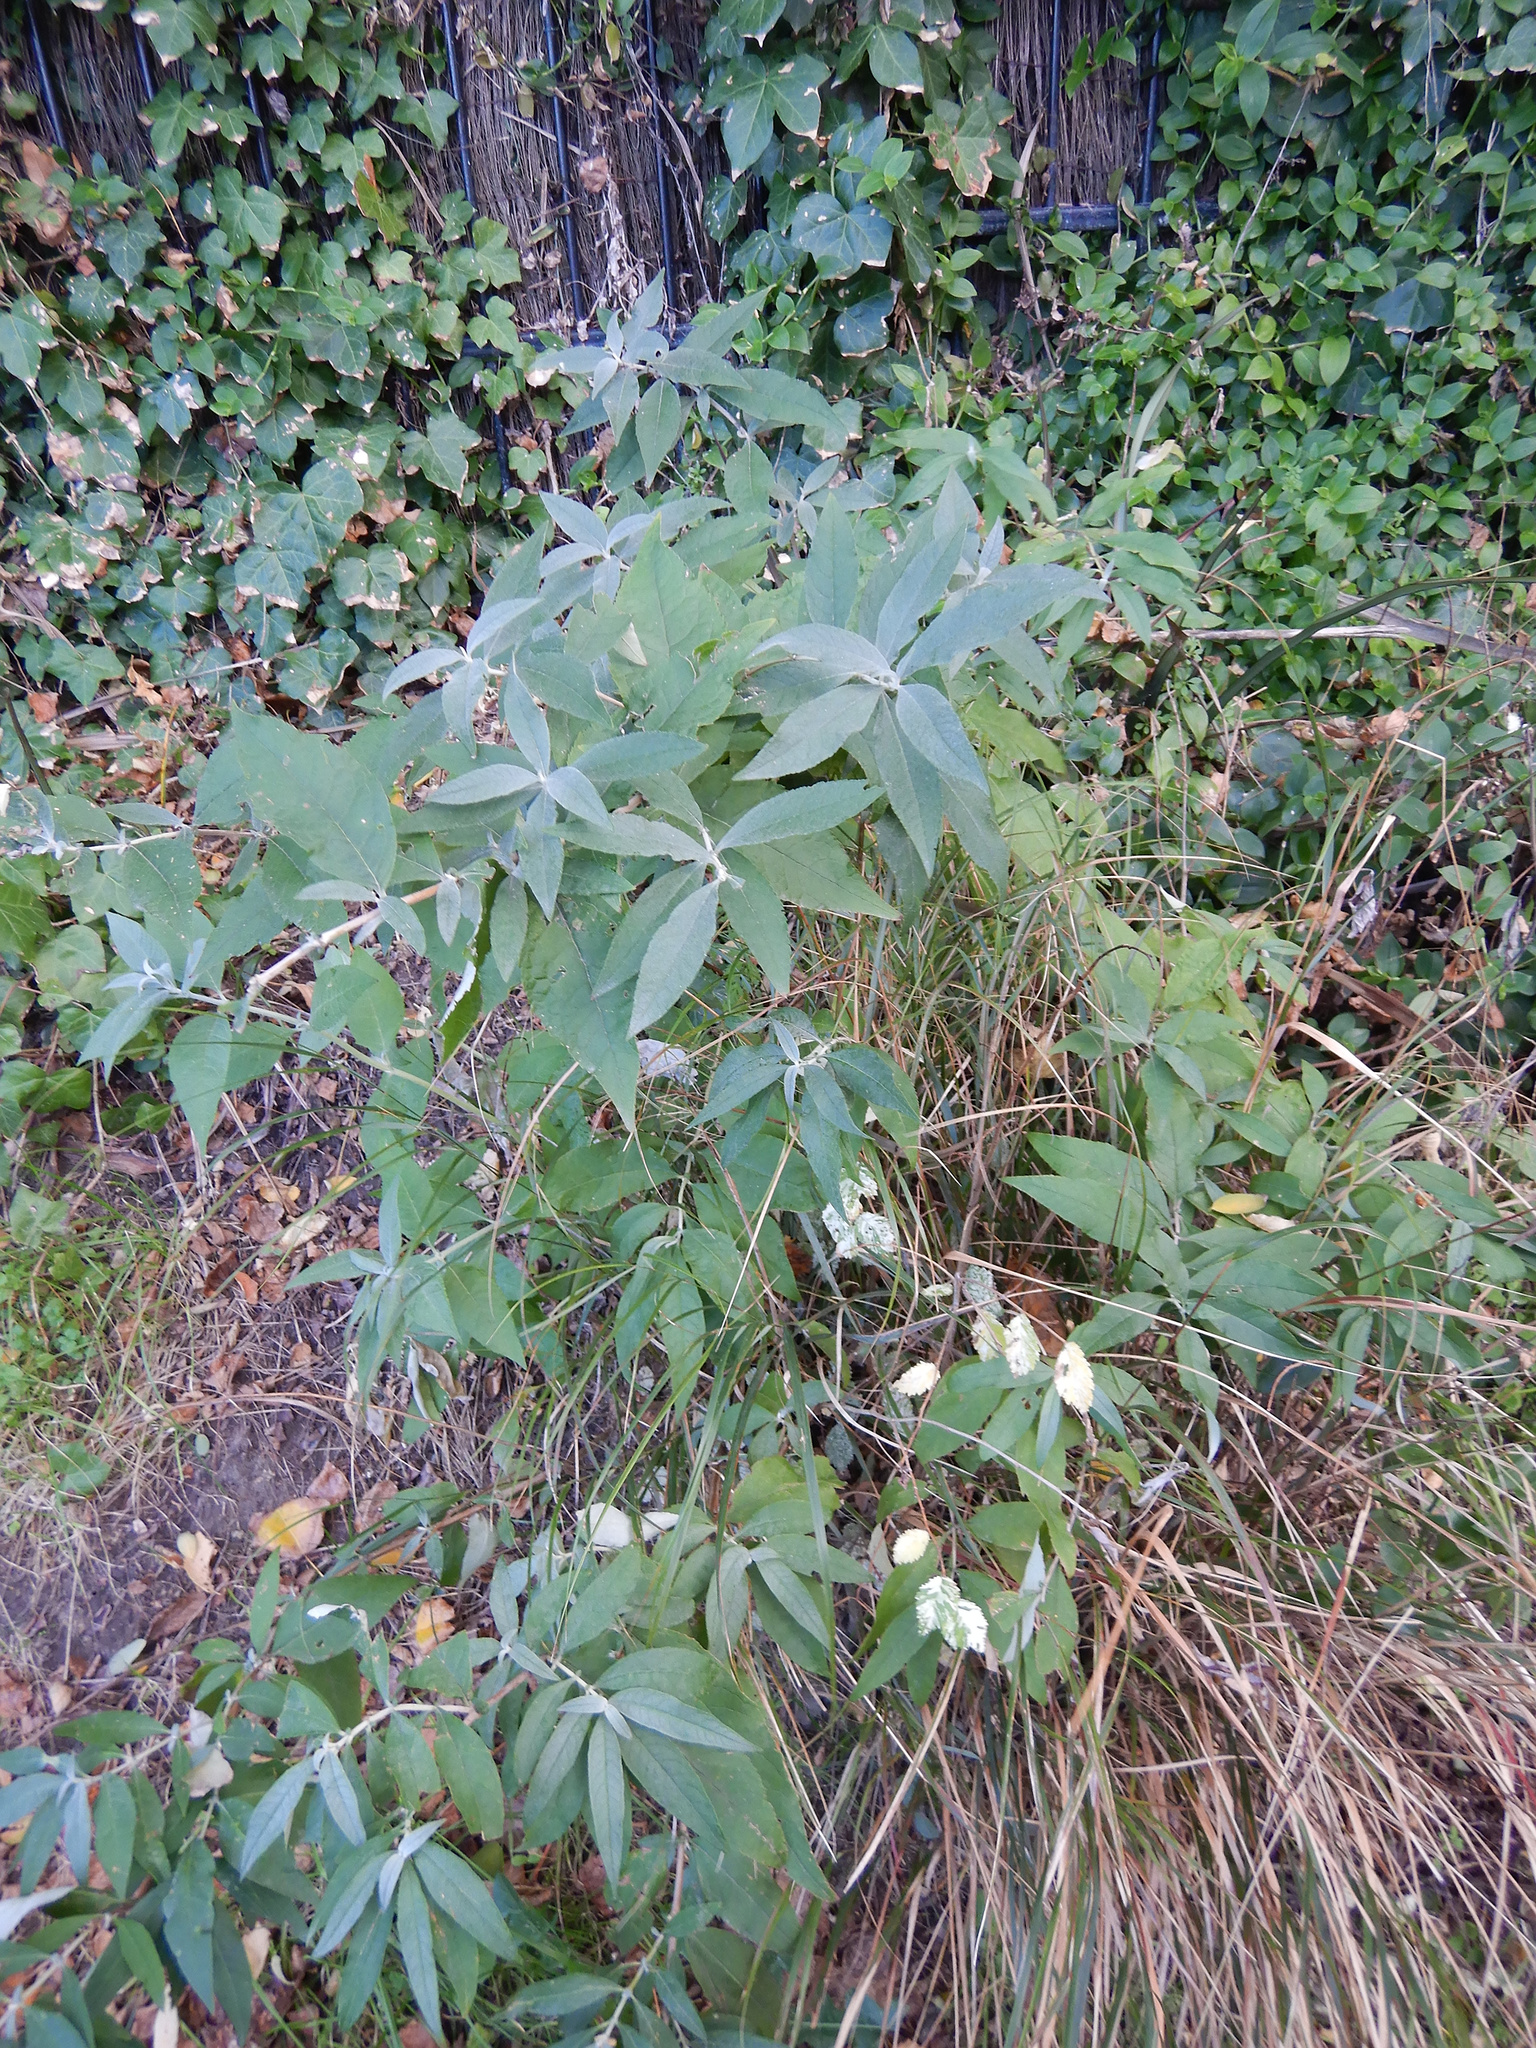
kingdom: Plantae
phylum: Tracheophyta
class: Magnoliopsida
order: Lamiales
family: Scrophulariaceae
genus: Buddleja
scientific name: Buddleja davidii
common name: Butterfly-bush
